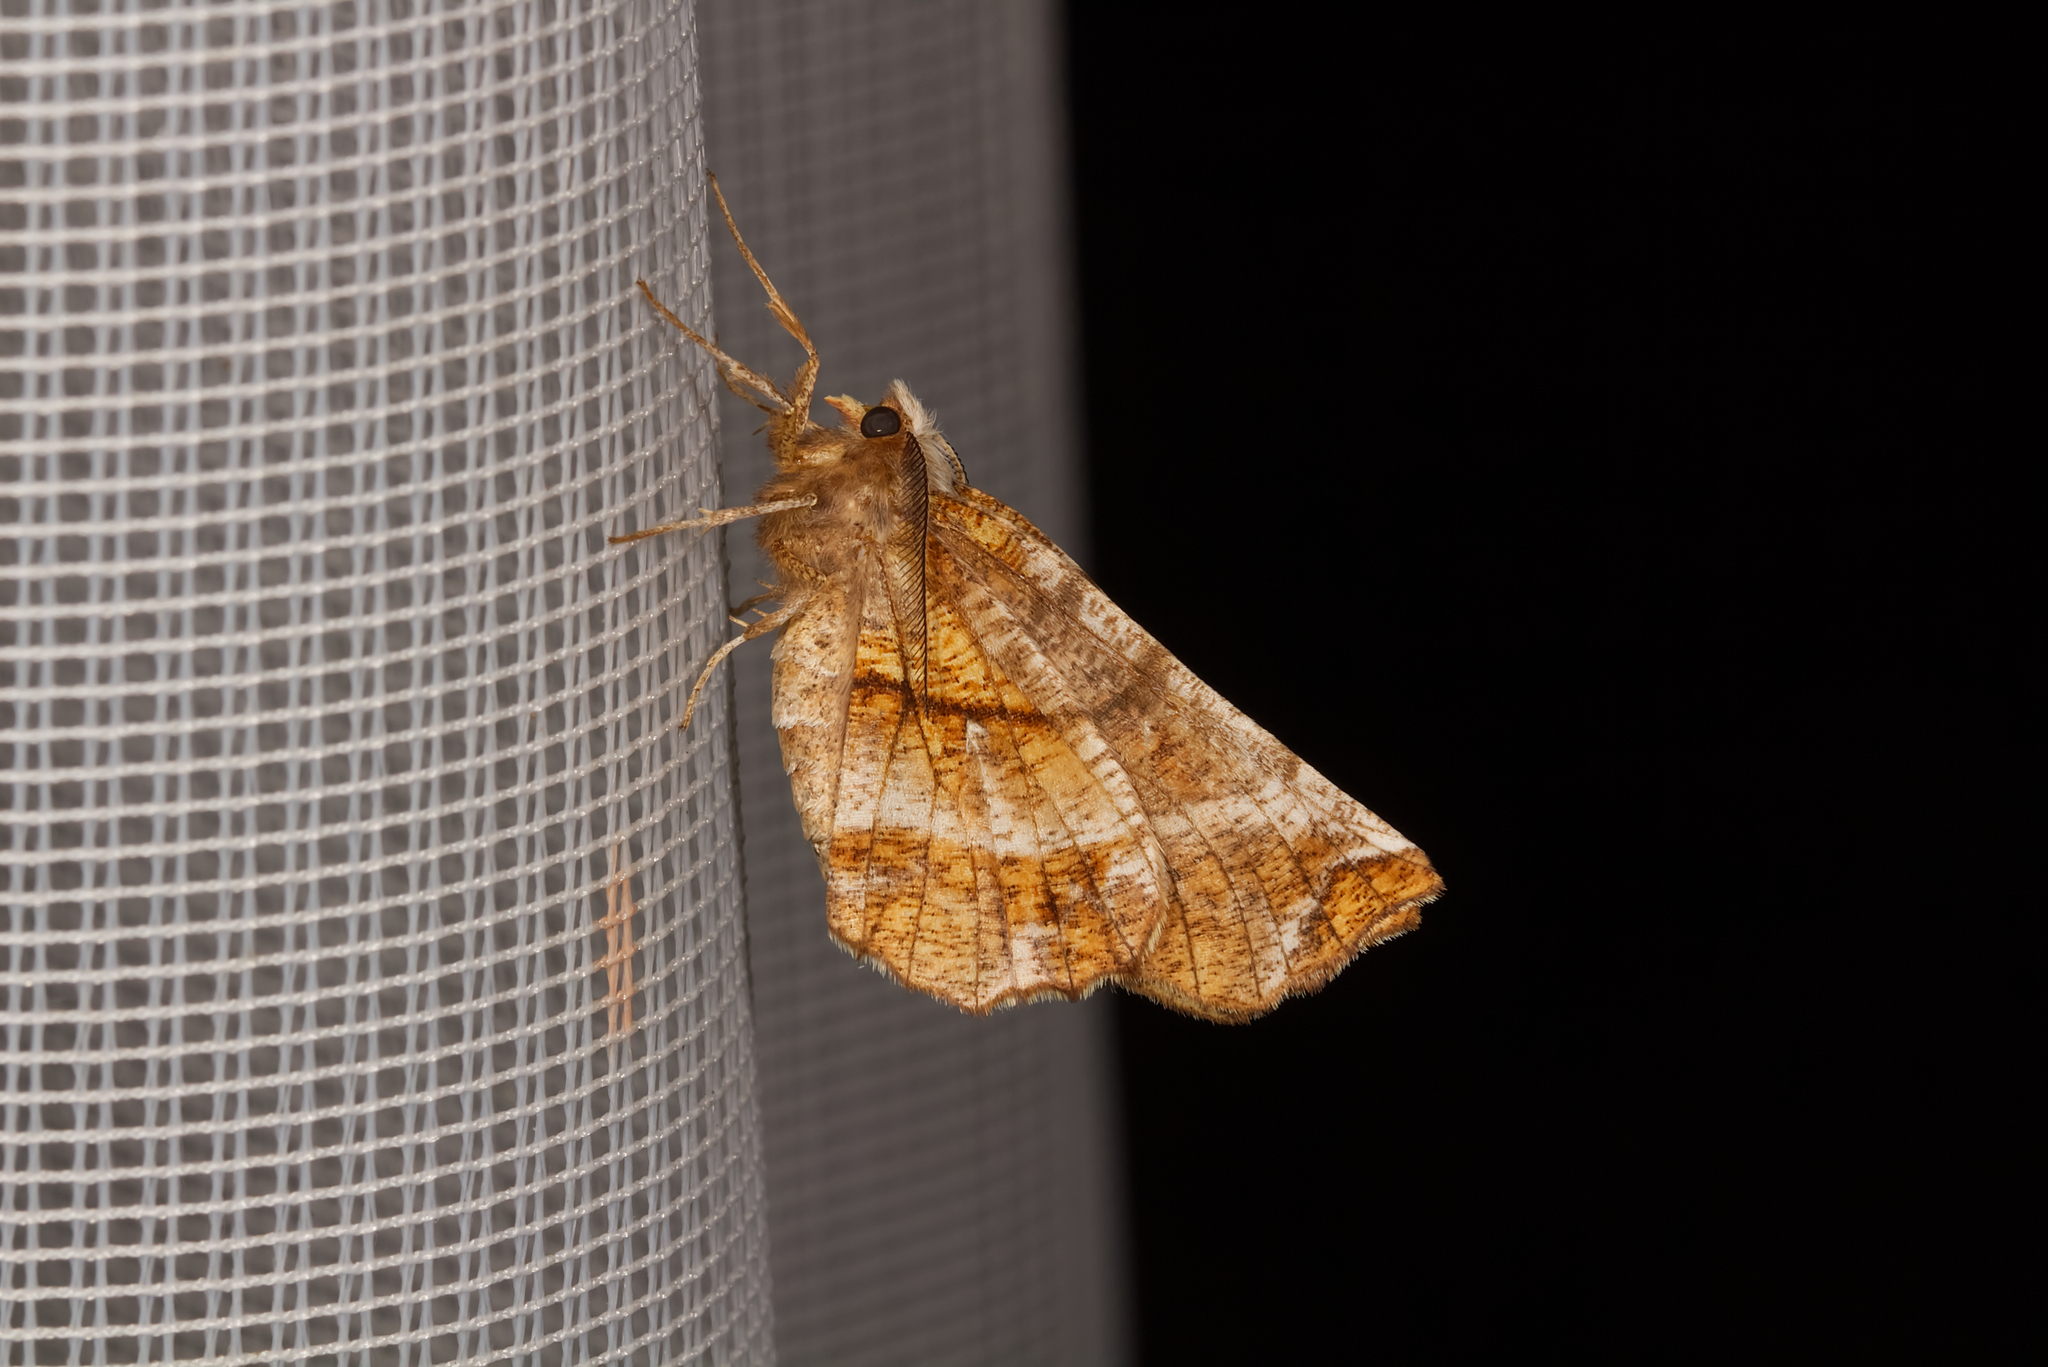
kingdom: Animalia
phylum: Arthropoda
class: Insecta
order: Lepidoptera
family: Geometridae
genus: Selenia
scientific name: Selenia dentaria
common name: Early thorn
